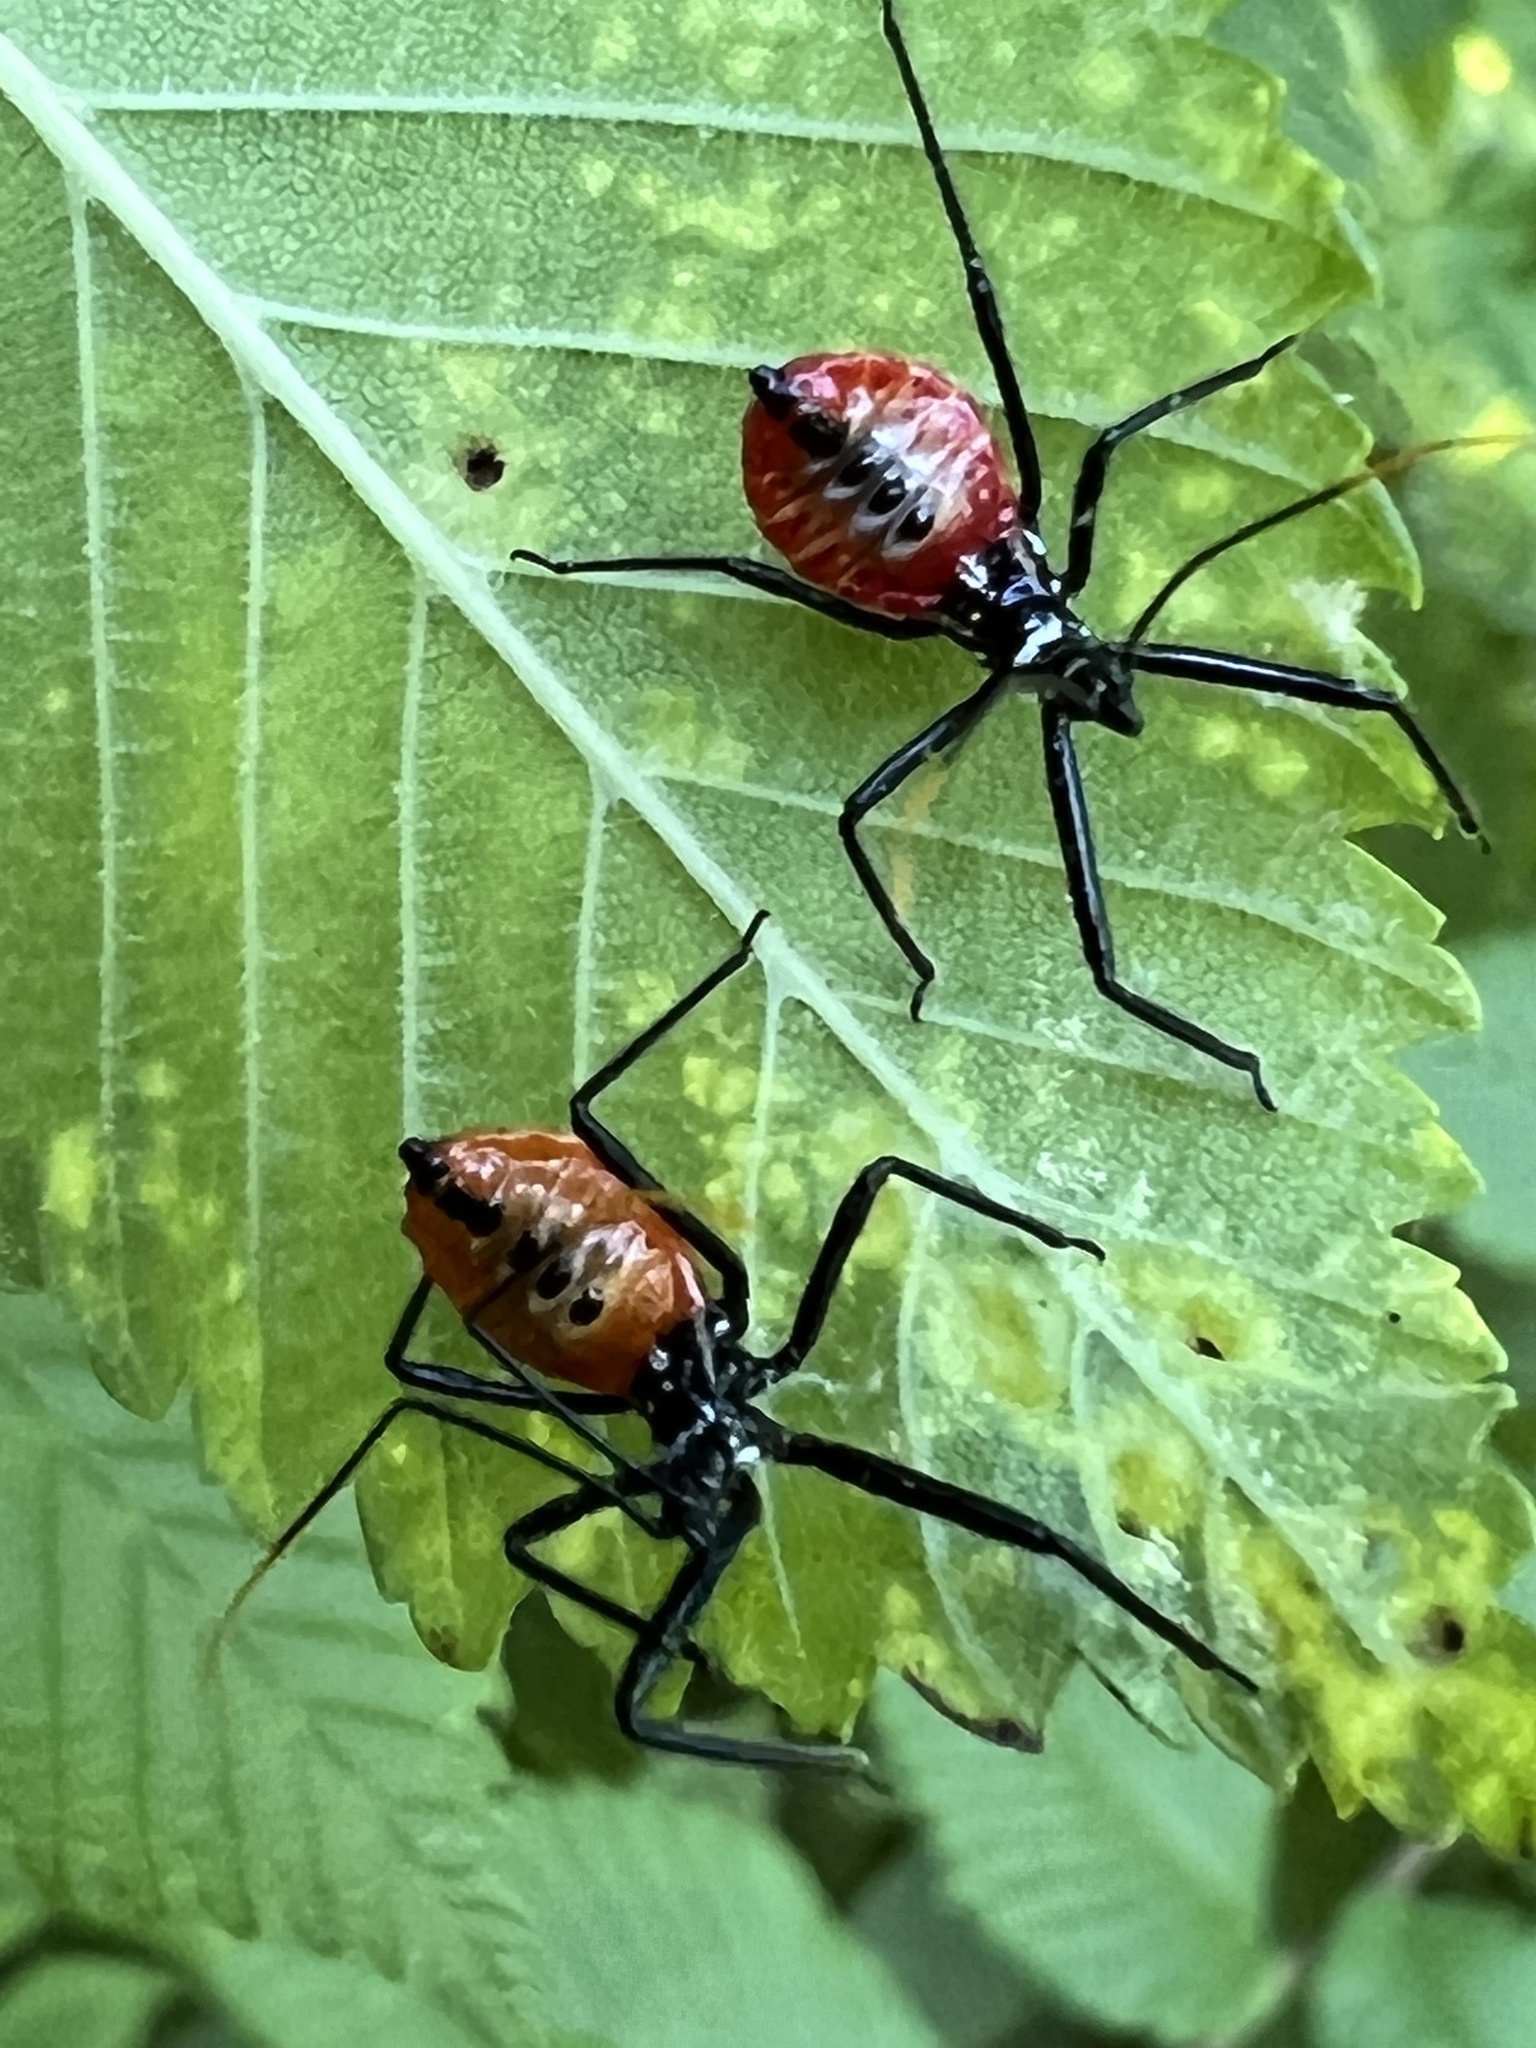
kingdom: Animalia
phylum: Arthropoda
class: Insecta
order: Hemiptera
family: Reduviidae
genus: Arilus
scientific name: Arilus cristatus
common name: North american wheel bug
